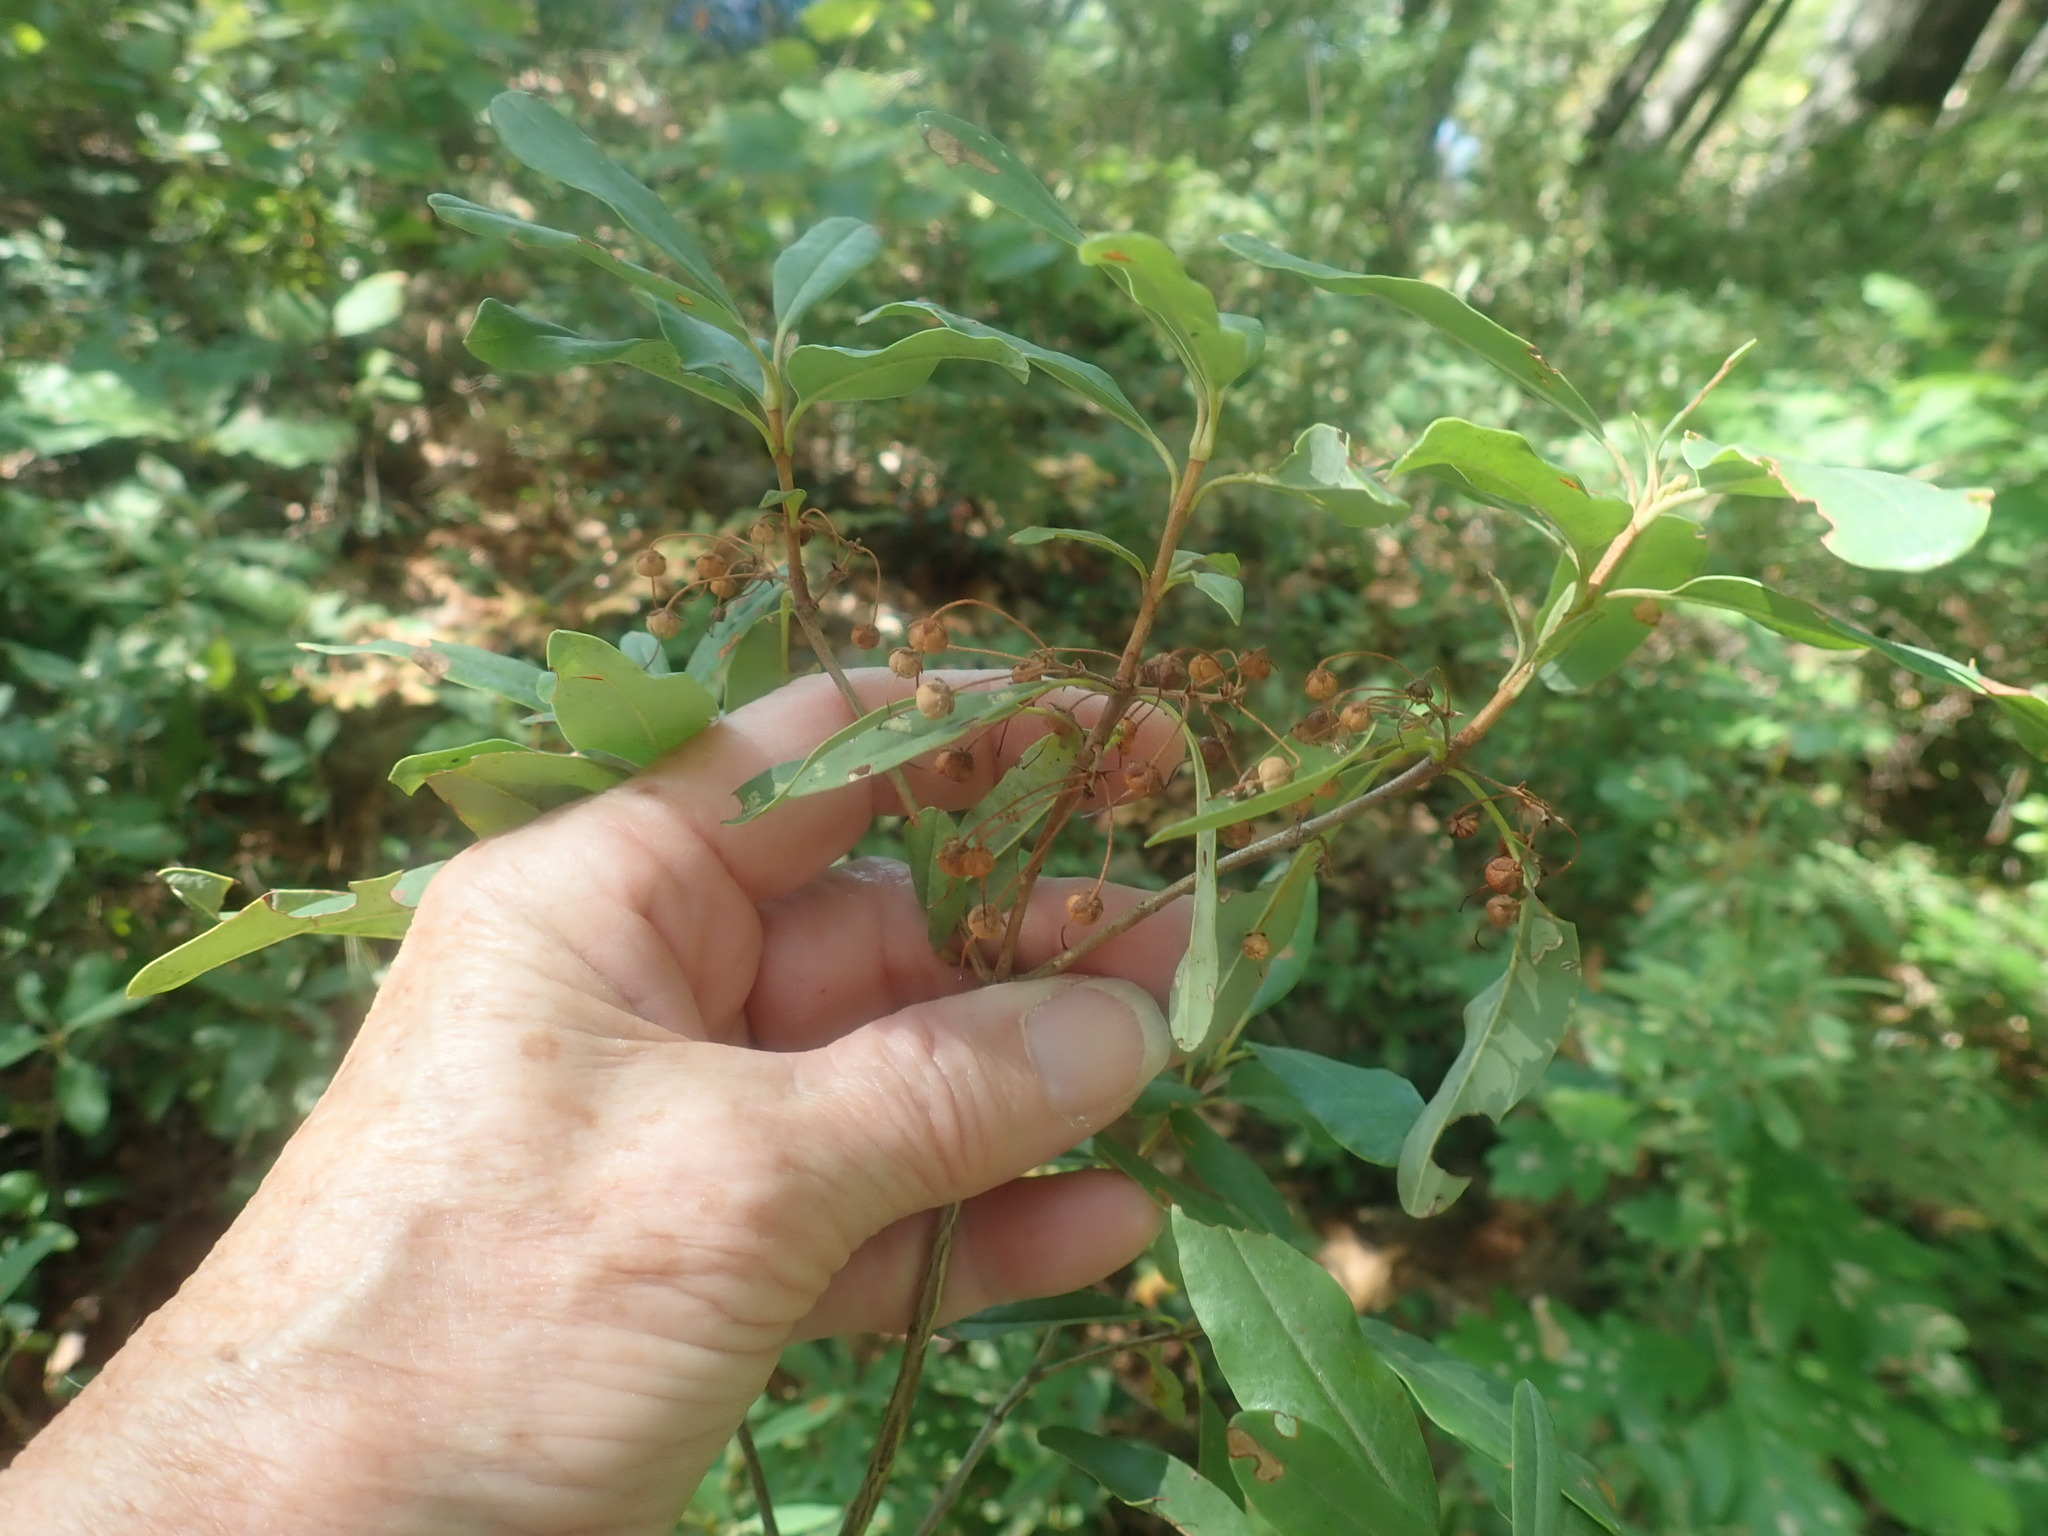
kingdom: Plantae
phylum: Tracheophyta
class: Magnoliopsida
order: Ericales
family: Ericaceae
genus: Kalmia
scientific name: Kalmia angustifolia
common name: Sheep-laurel
